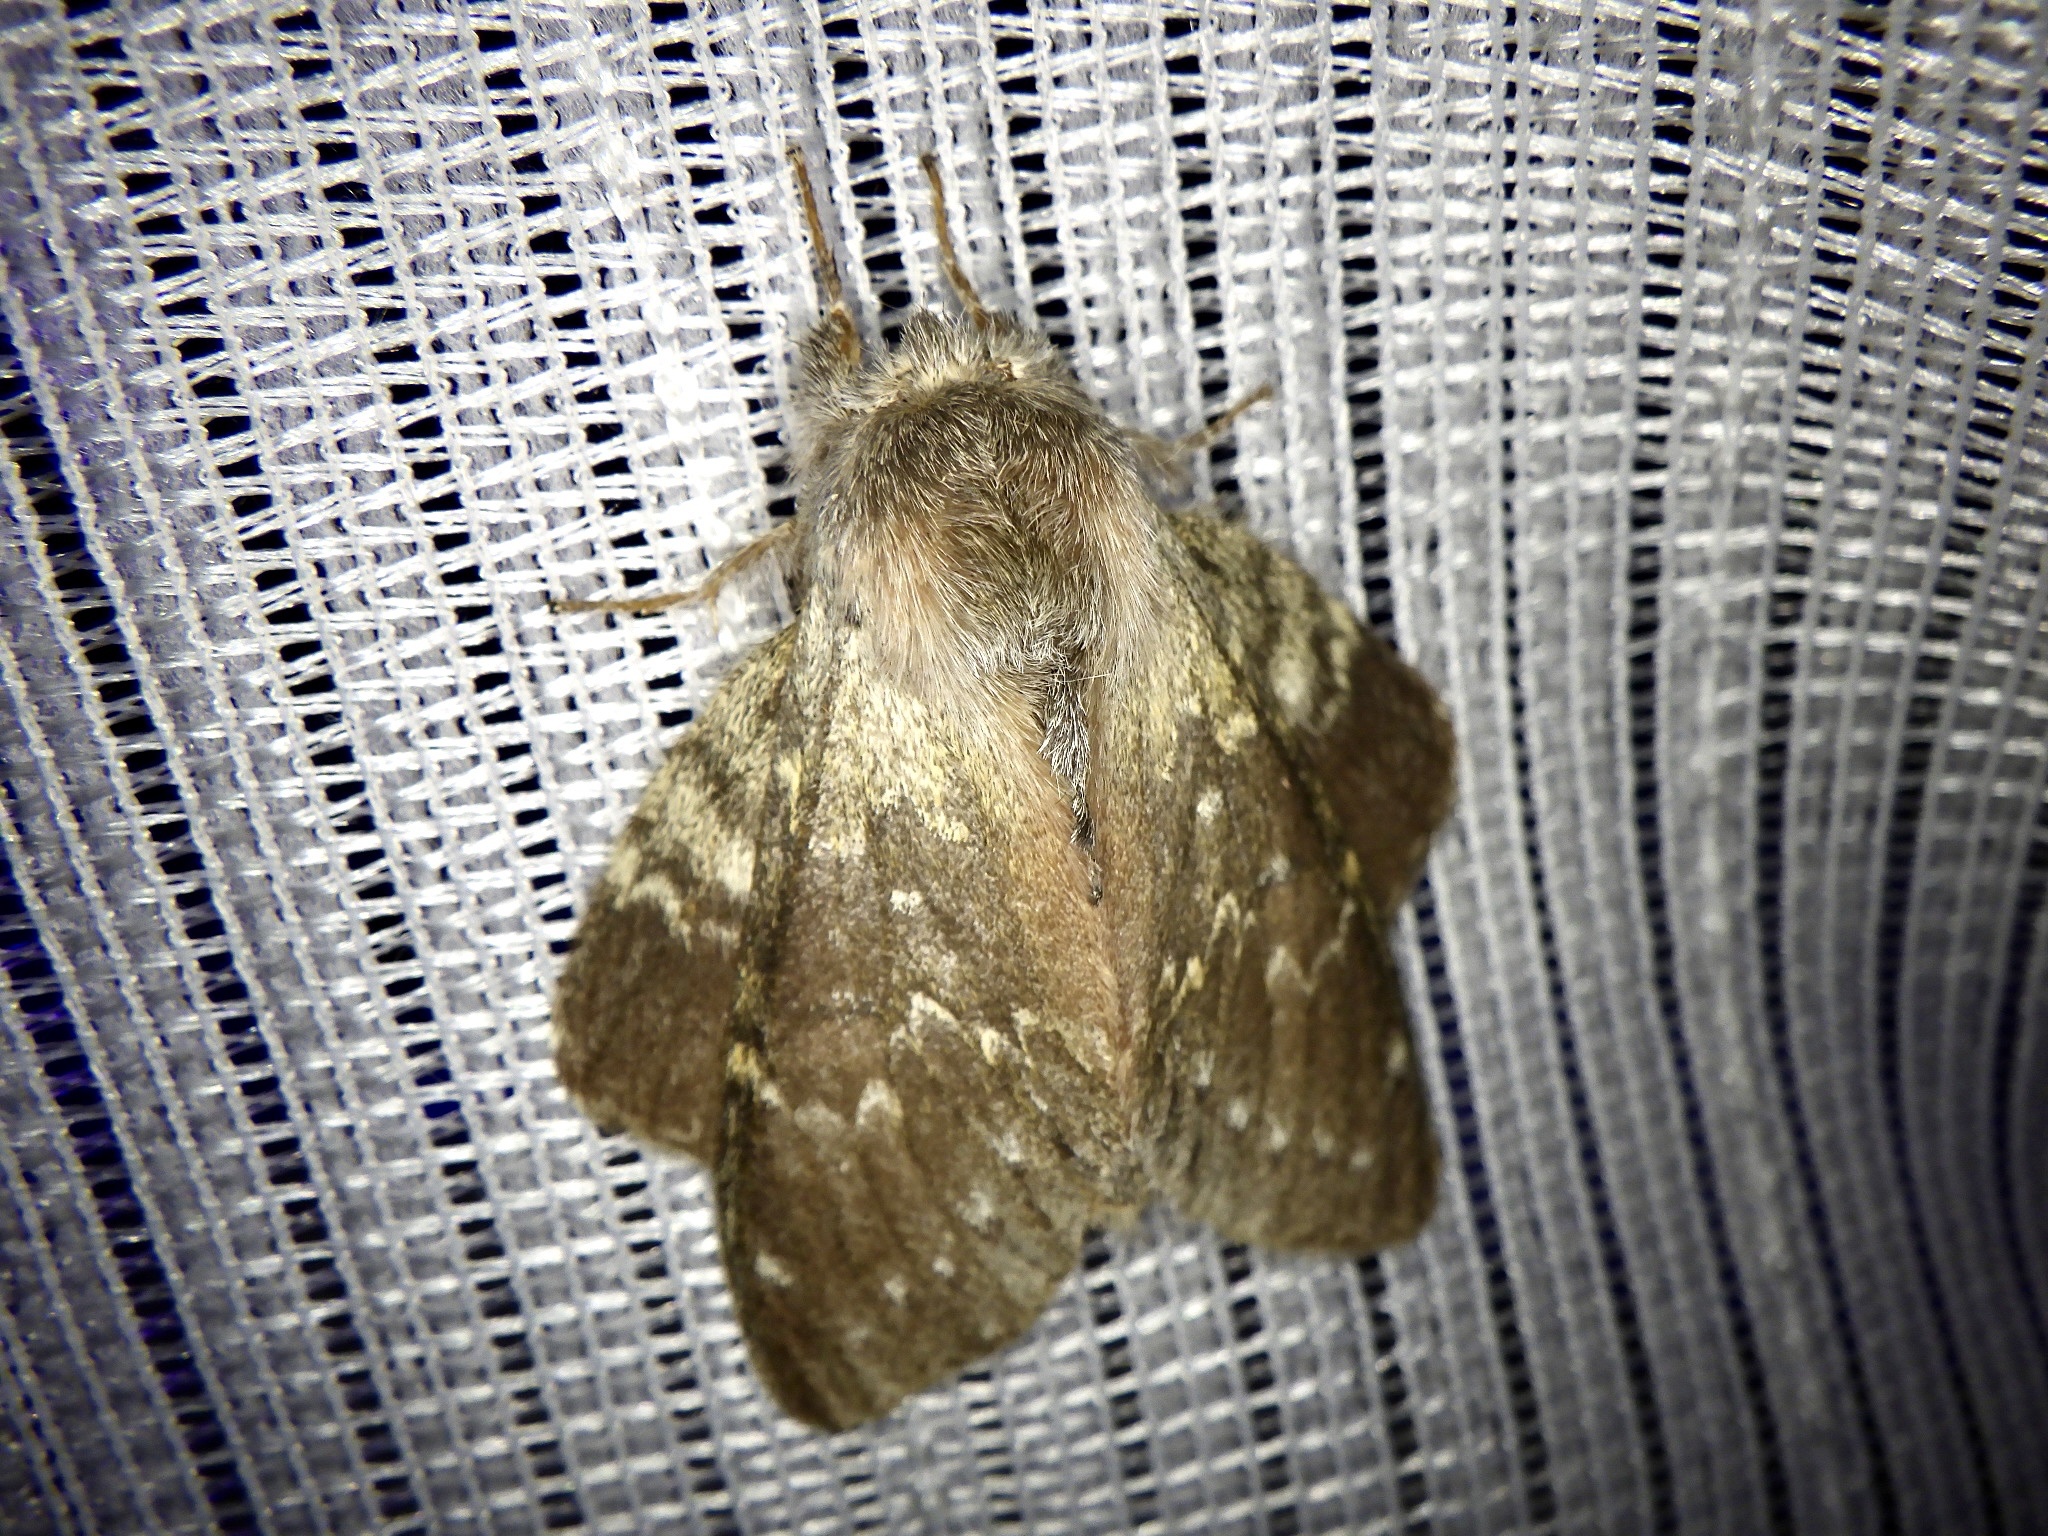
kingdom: Animalia
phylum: Arthropoda
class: Insecta
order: Lepidoptera
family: Notodontidae
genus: Stauropus
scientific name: Stauropus fagi
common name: Lobster moth
